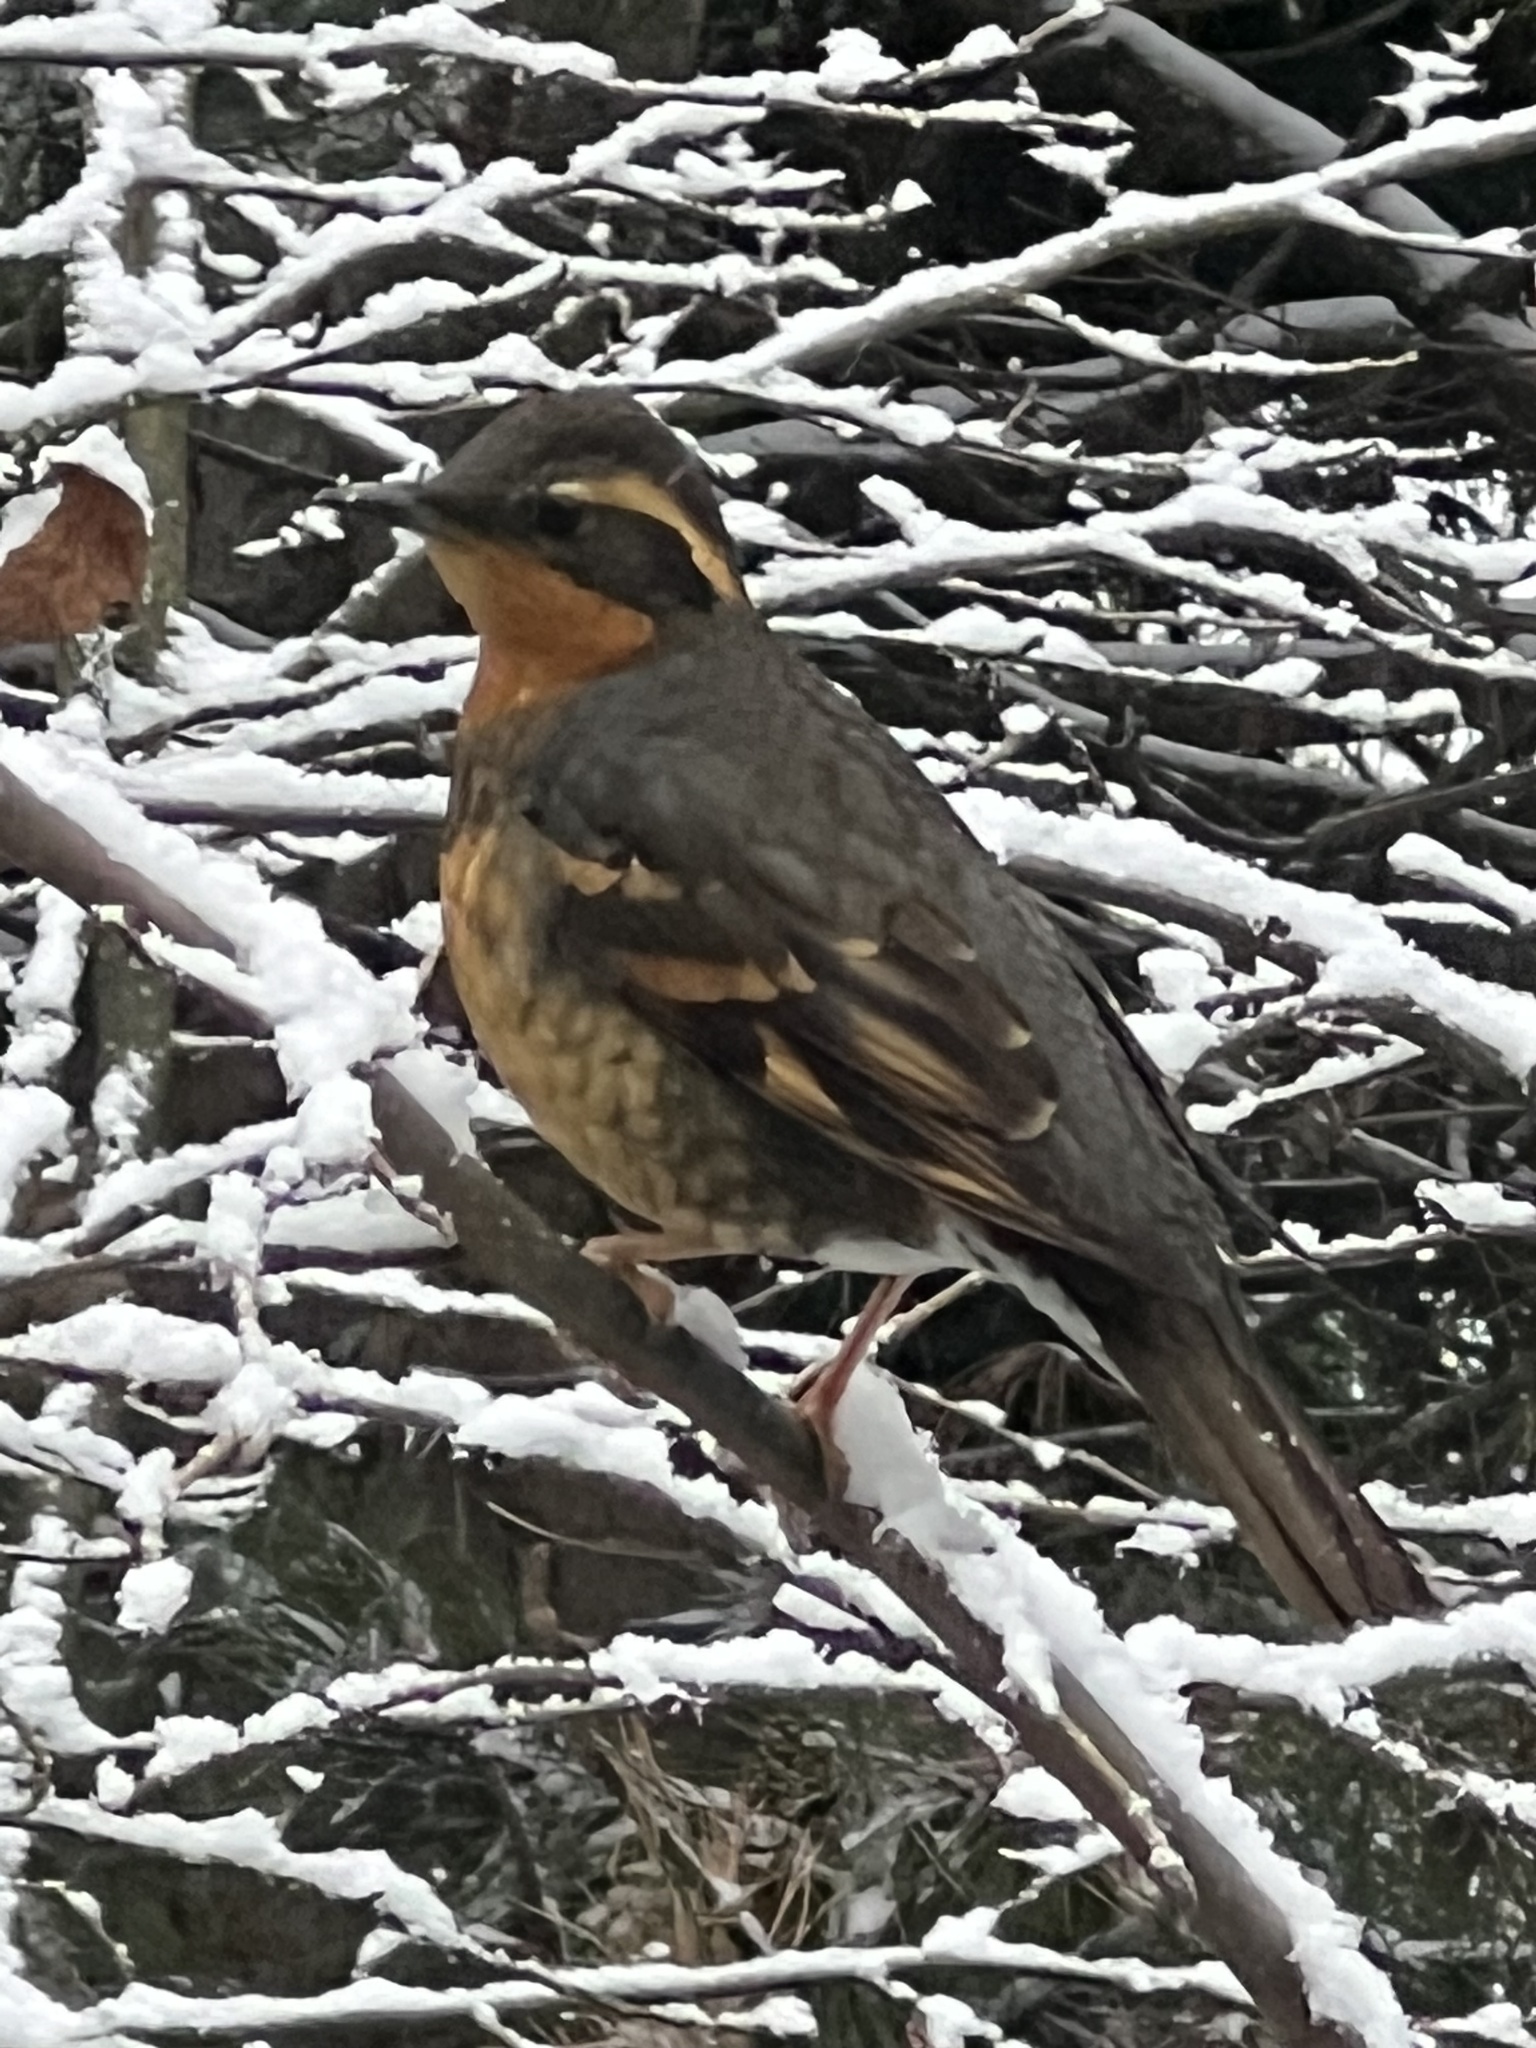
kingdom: Animalia
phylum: Chordata
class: Aves
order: Passeriformes
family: Turdidae
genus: Ixoreus
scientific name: Ixoreus naevius
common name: Varied thrush
